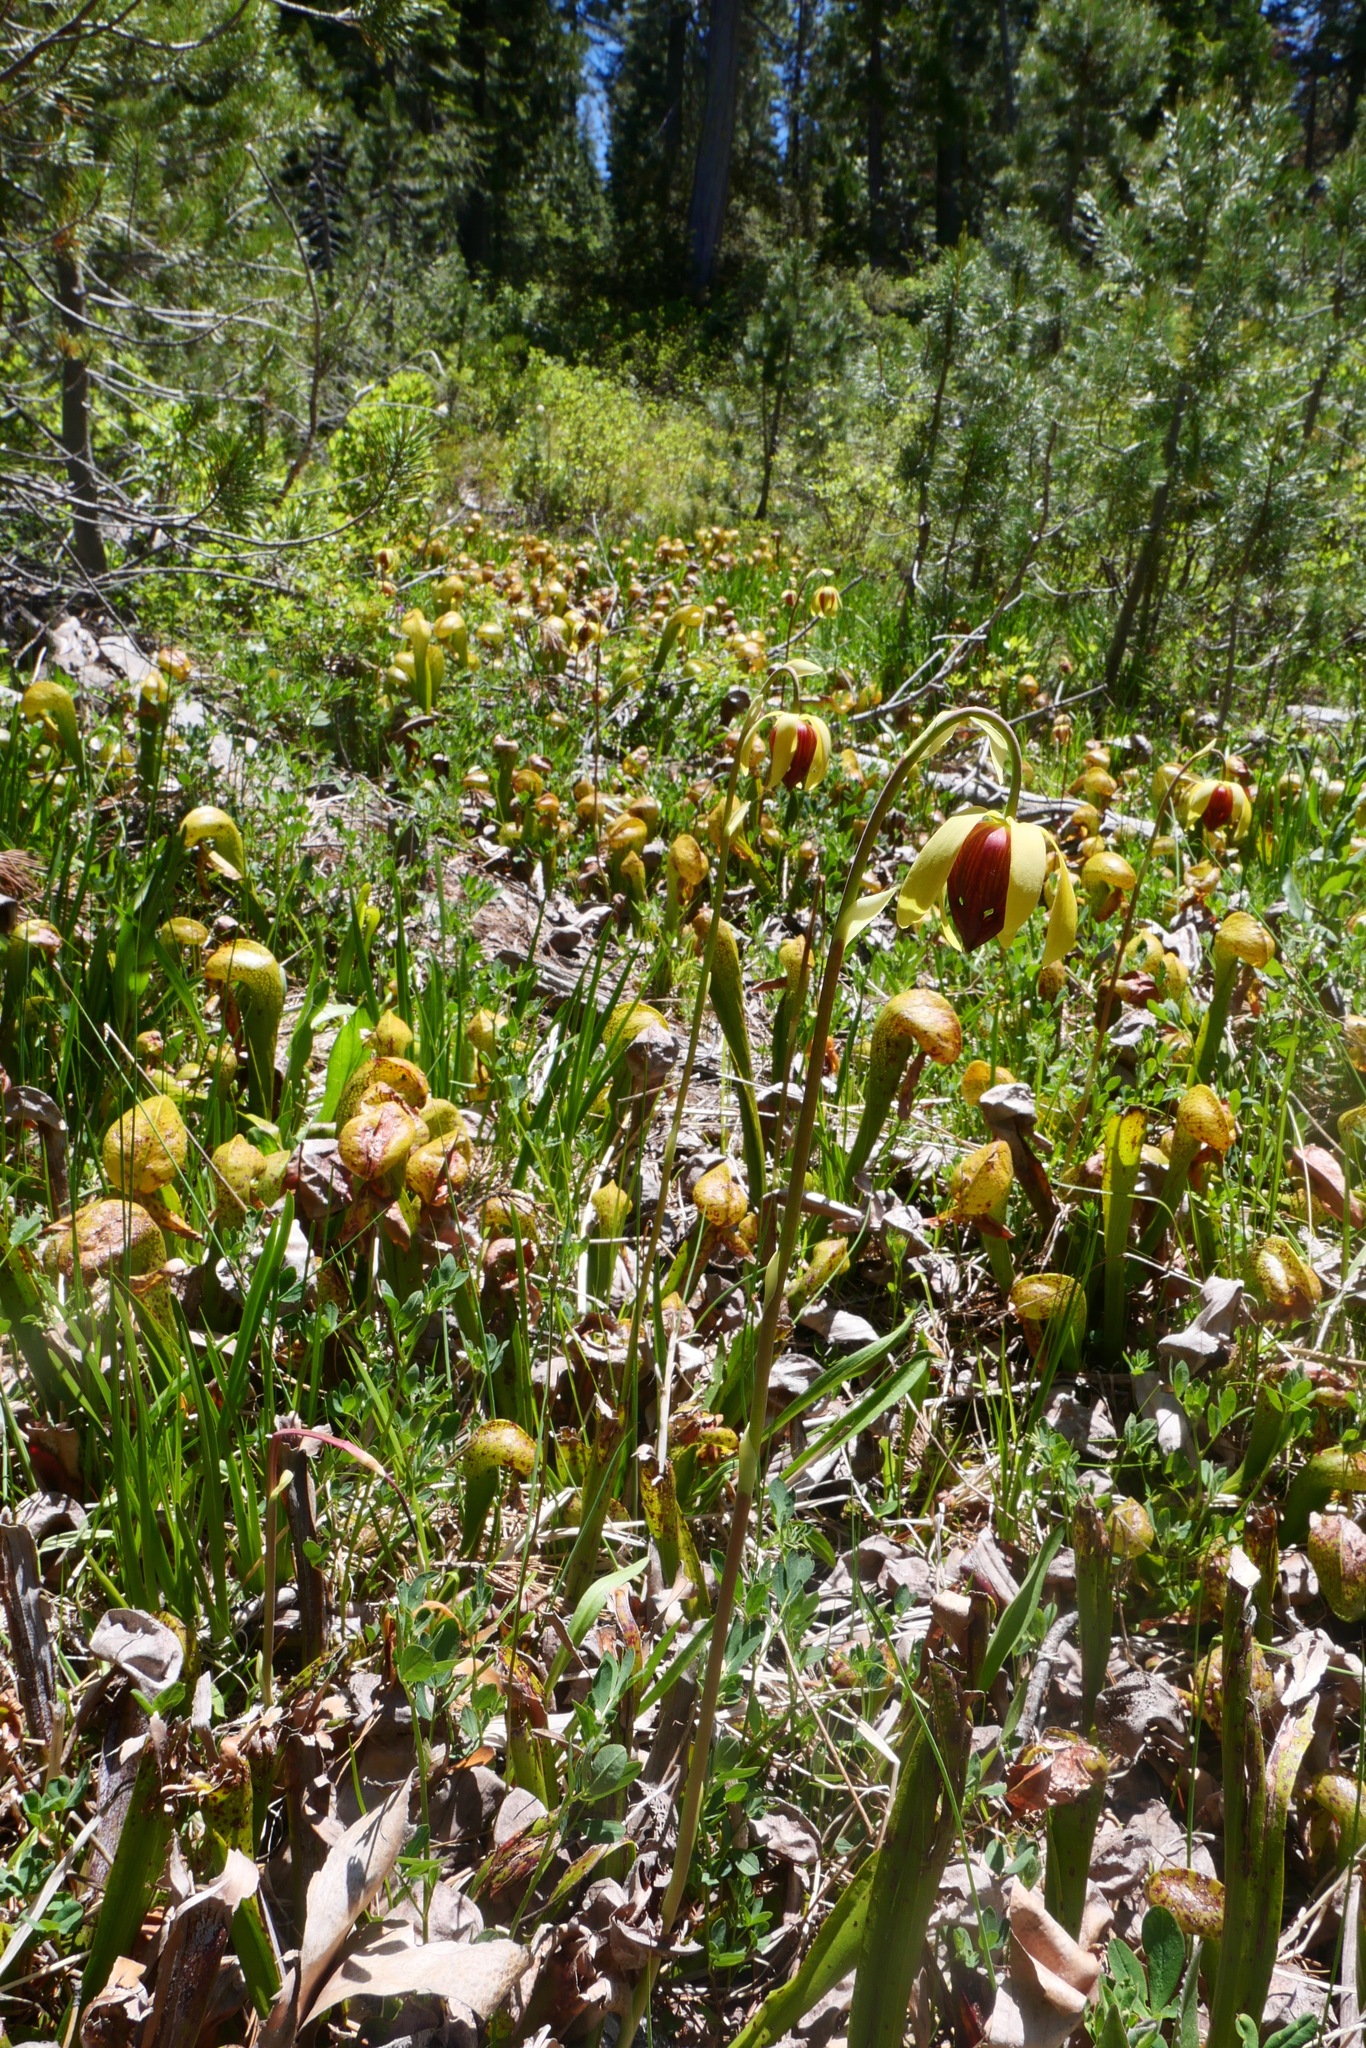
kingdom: Plantae
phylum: Tracheophyta
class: Magnoliopsida
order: Ericales
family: Sarraceniaceae
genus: Darlingtonia
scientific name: Darlingtonia californica
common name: California pitcher plant
